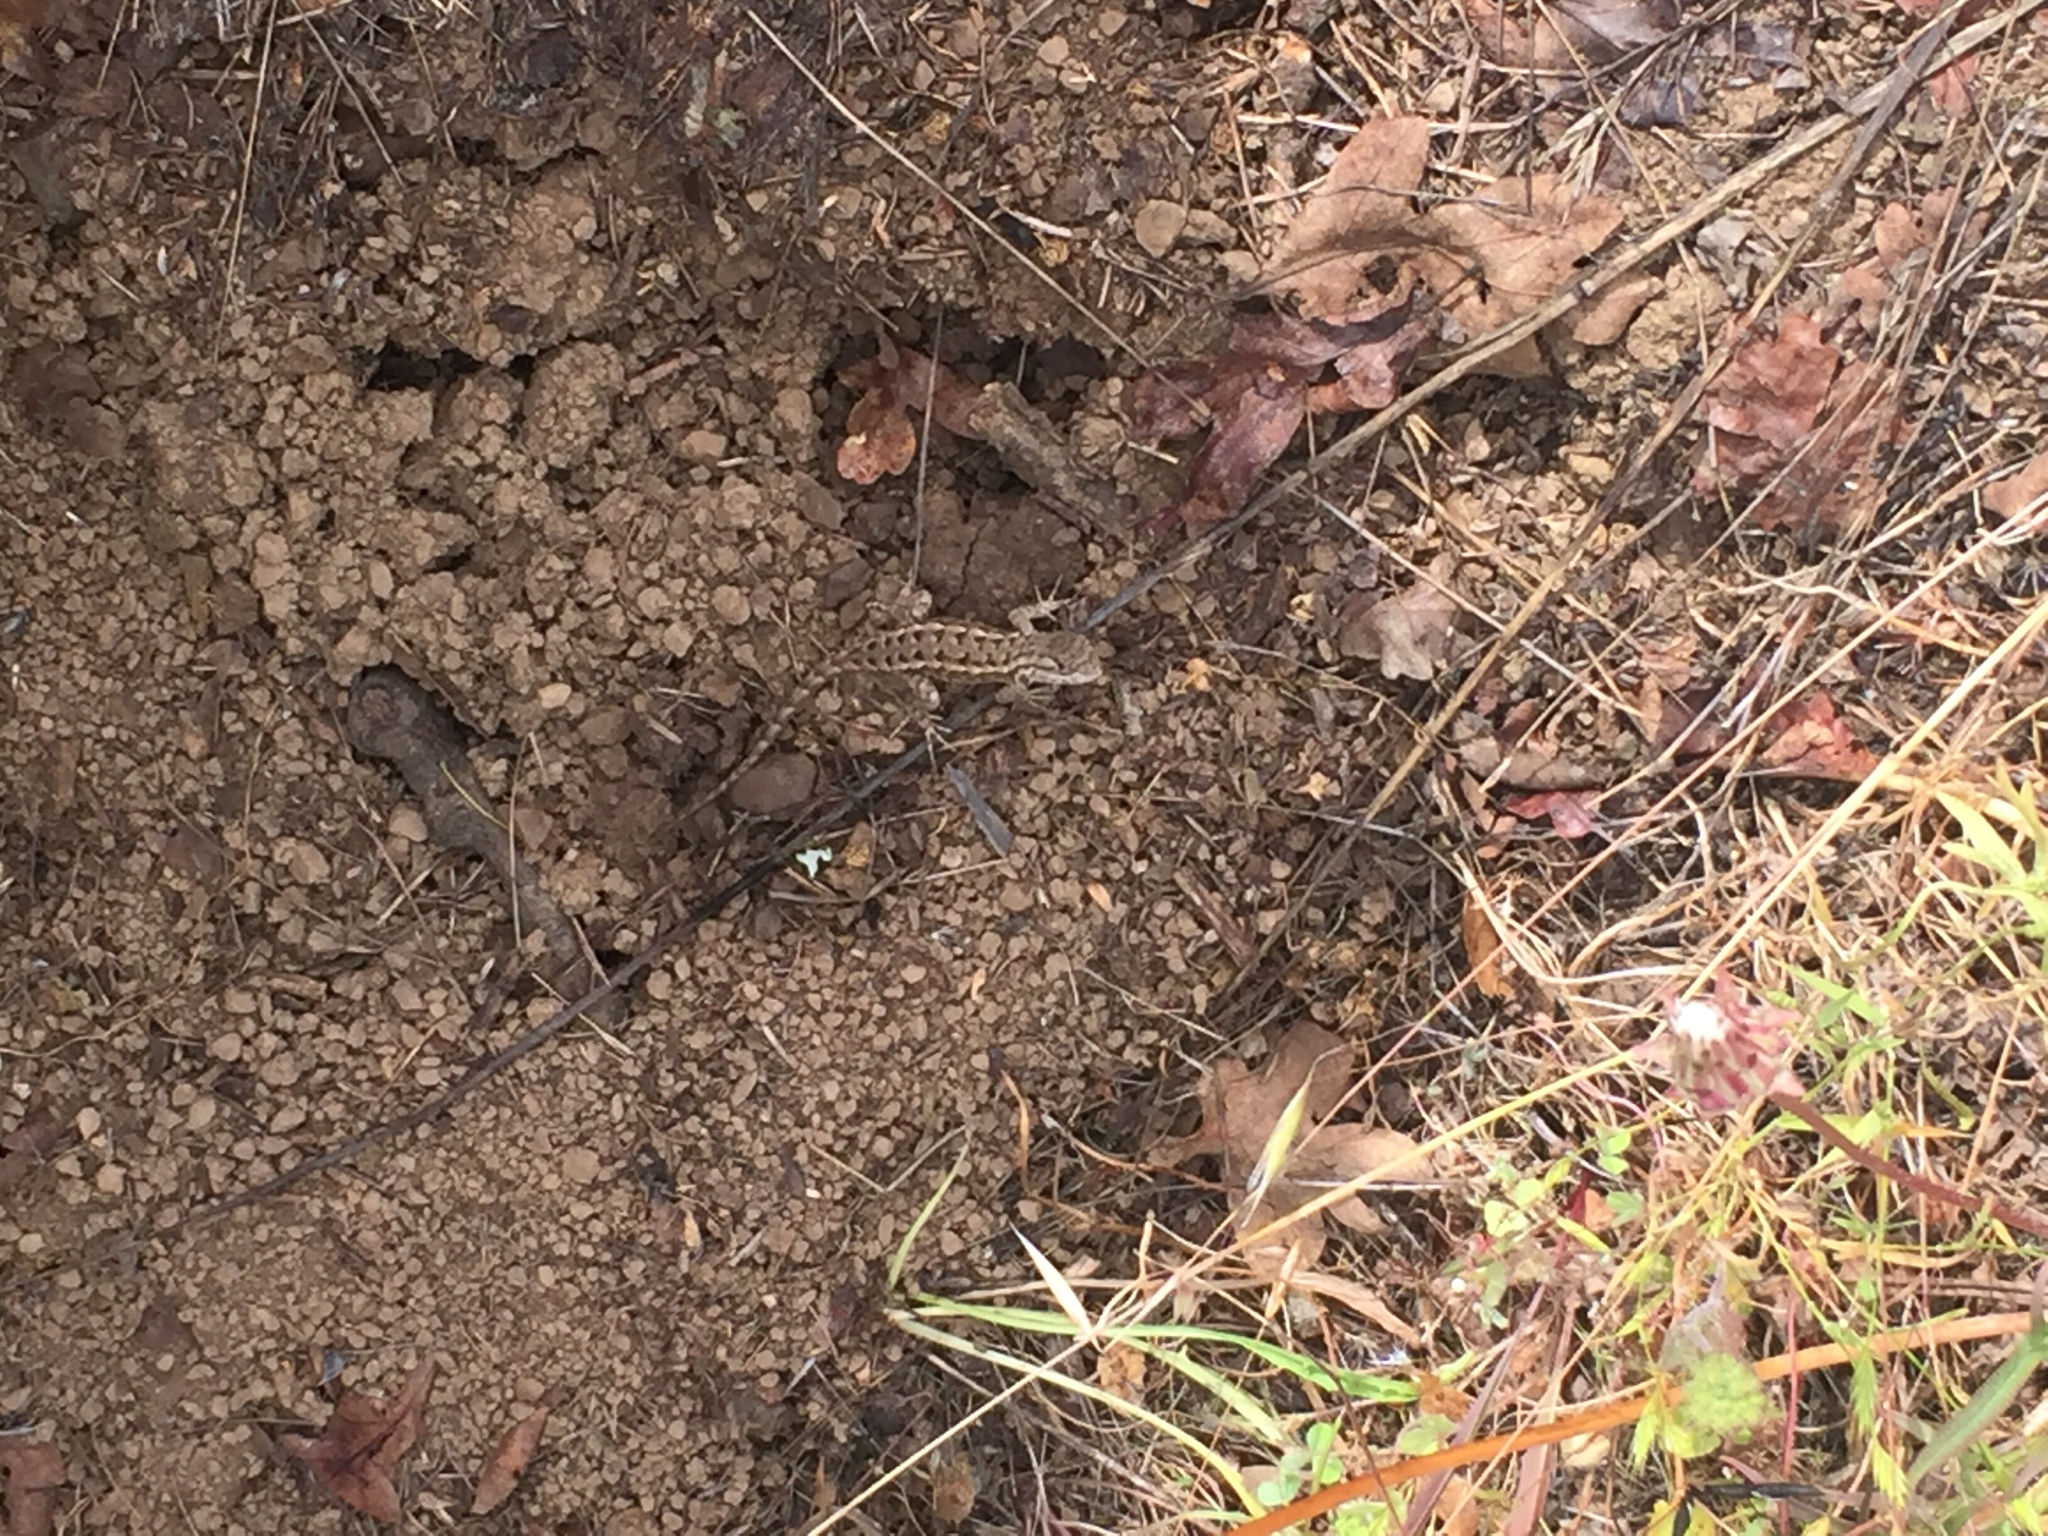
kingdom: Animalia
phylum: Chordata
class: Squamata
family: Phrynosomatidae
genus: Sceloporus
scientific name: Sceloporus occidentalis
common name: Western fence lizard
